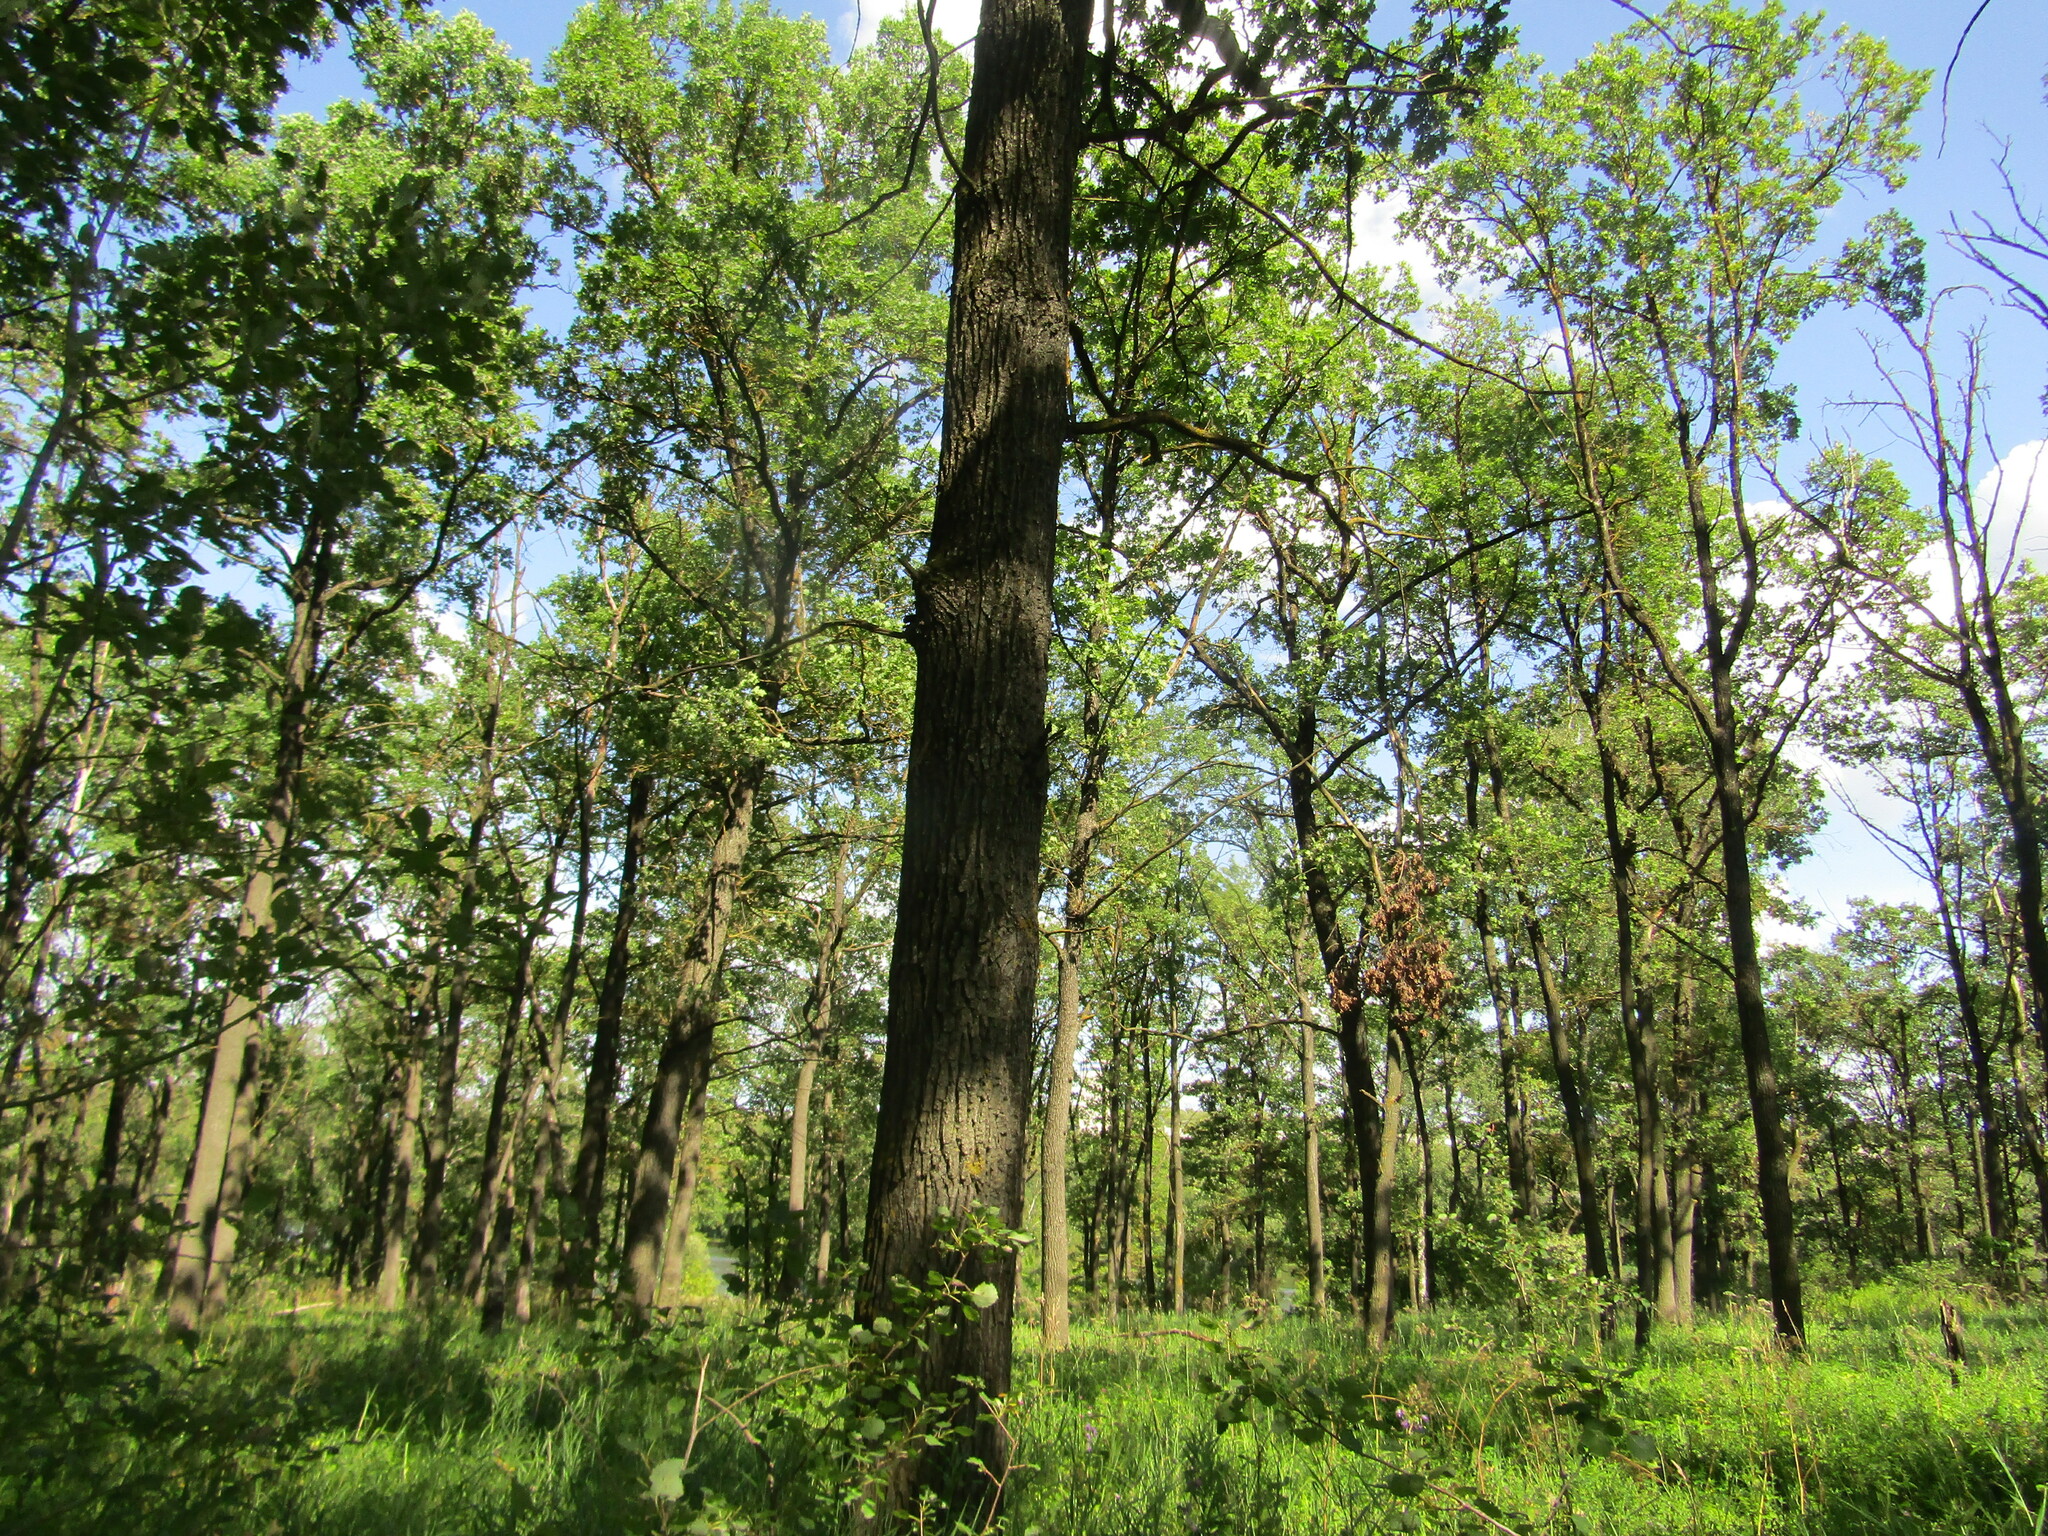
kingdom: Plantae
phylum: Tracheophyta
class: Magnoliopsida
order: Fagales
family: Fagaceae
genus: Quercus
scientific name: Quercus robur
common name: Pedunculate oak
